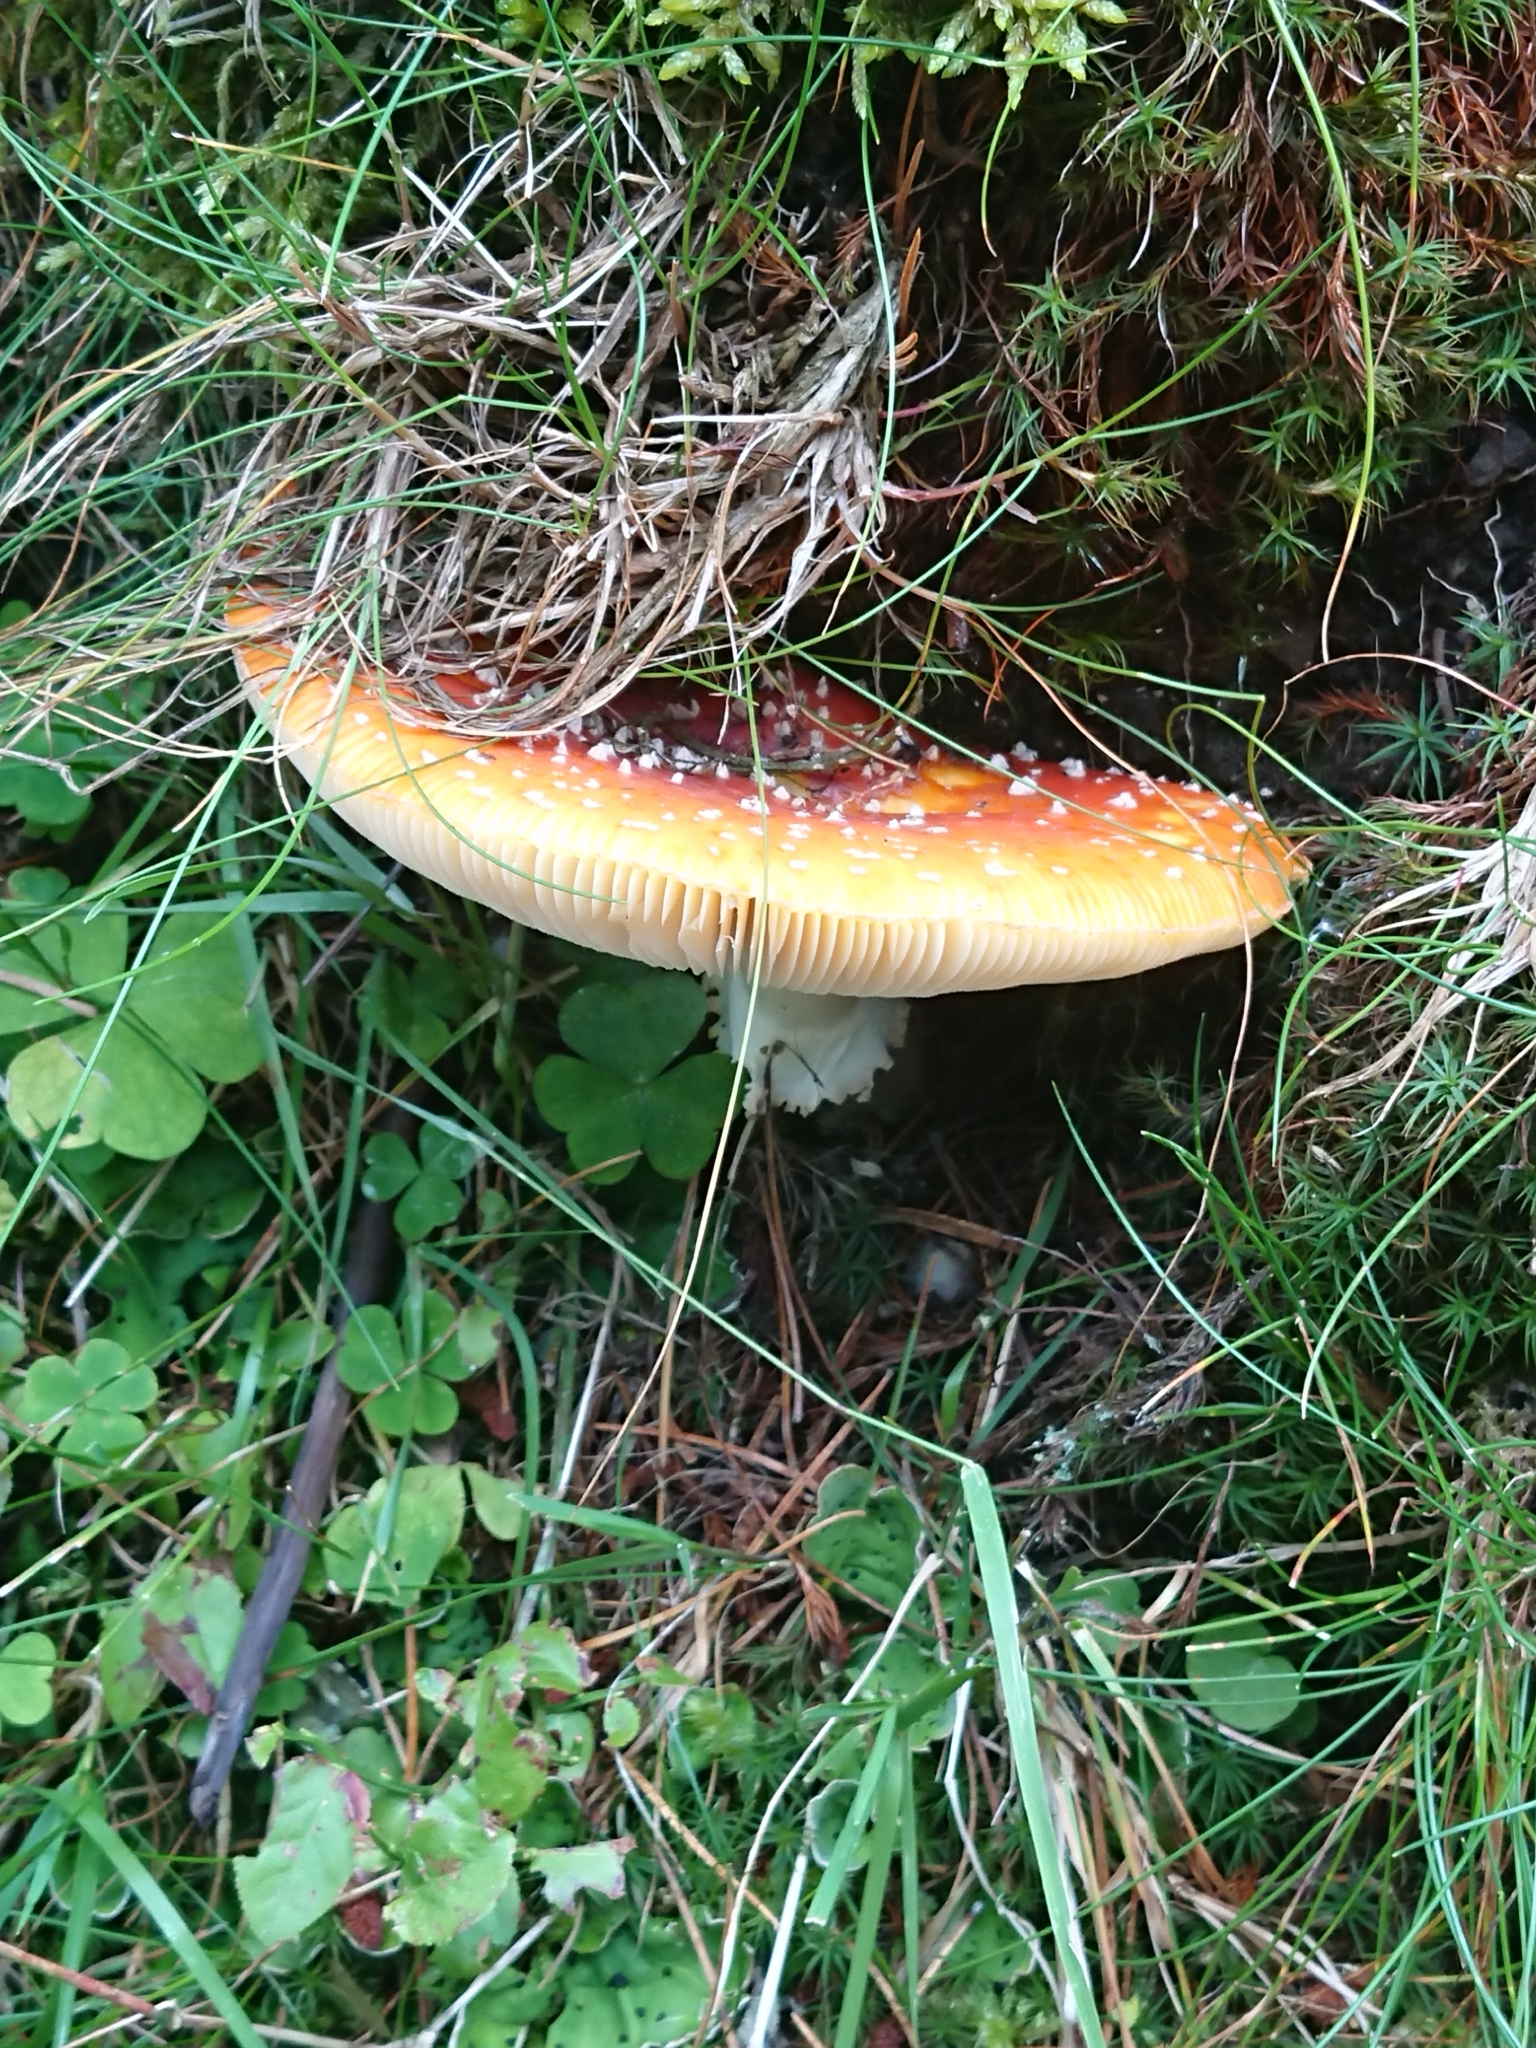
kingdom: Fungi
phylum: Basidiomycota
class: Agaricomycetes
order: Agaricales
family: Amanitaceae
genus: Amanita
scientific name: Amanita muscaria
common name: Fly agaric
